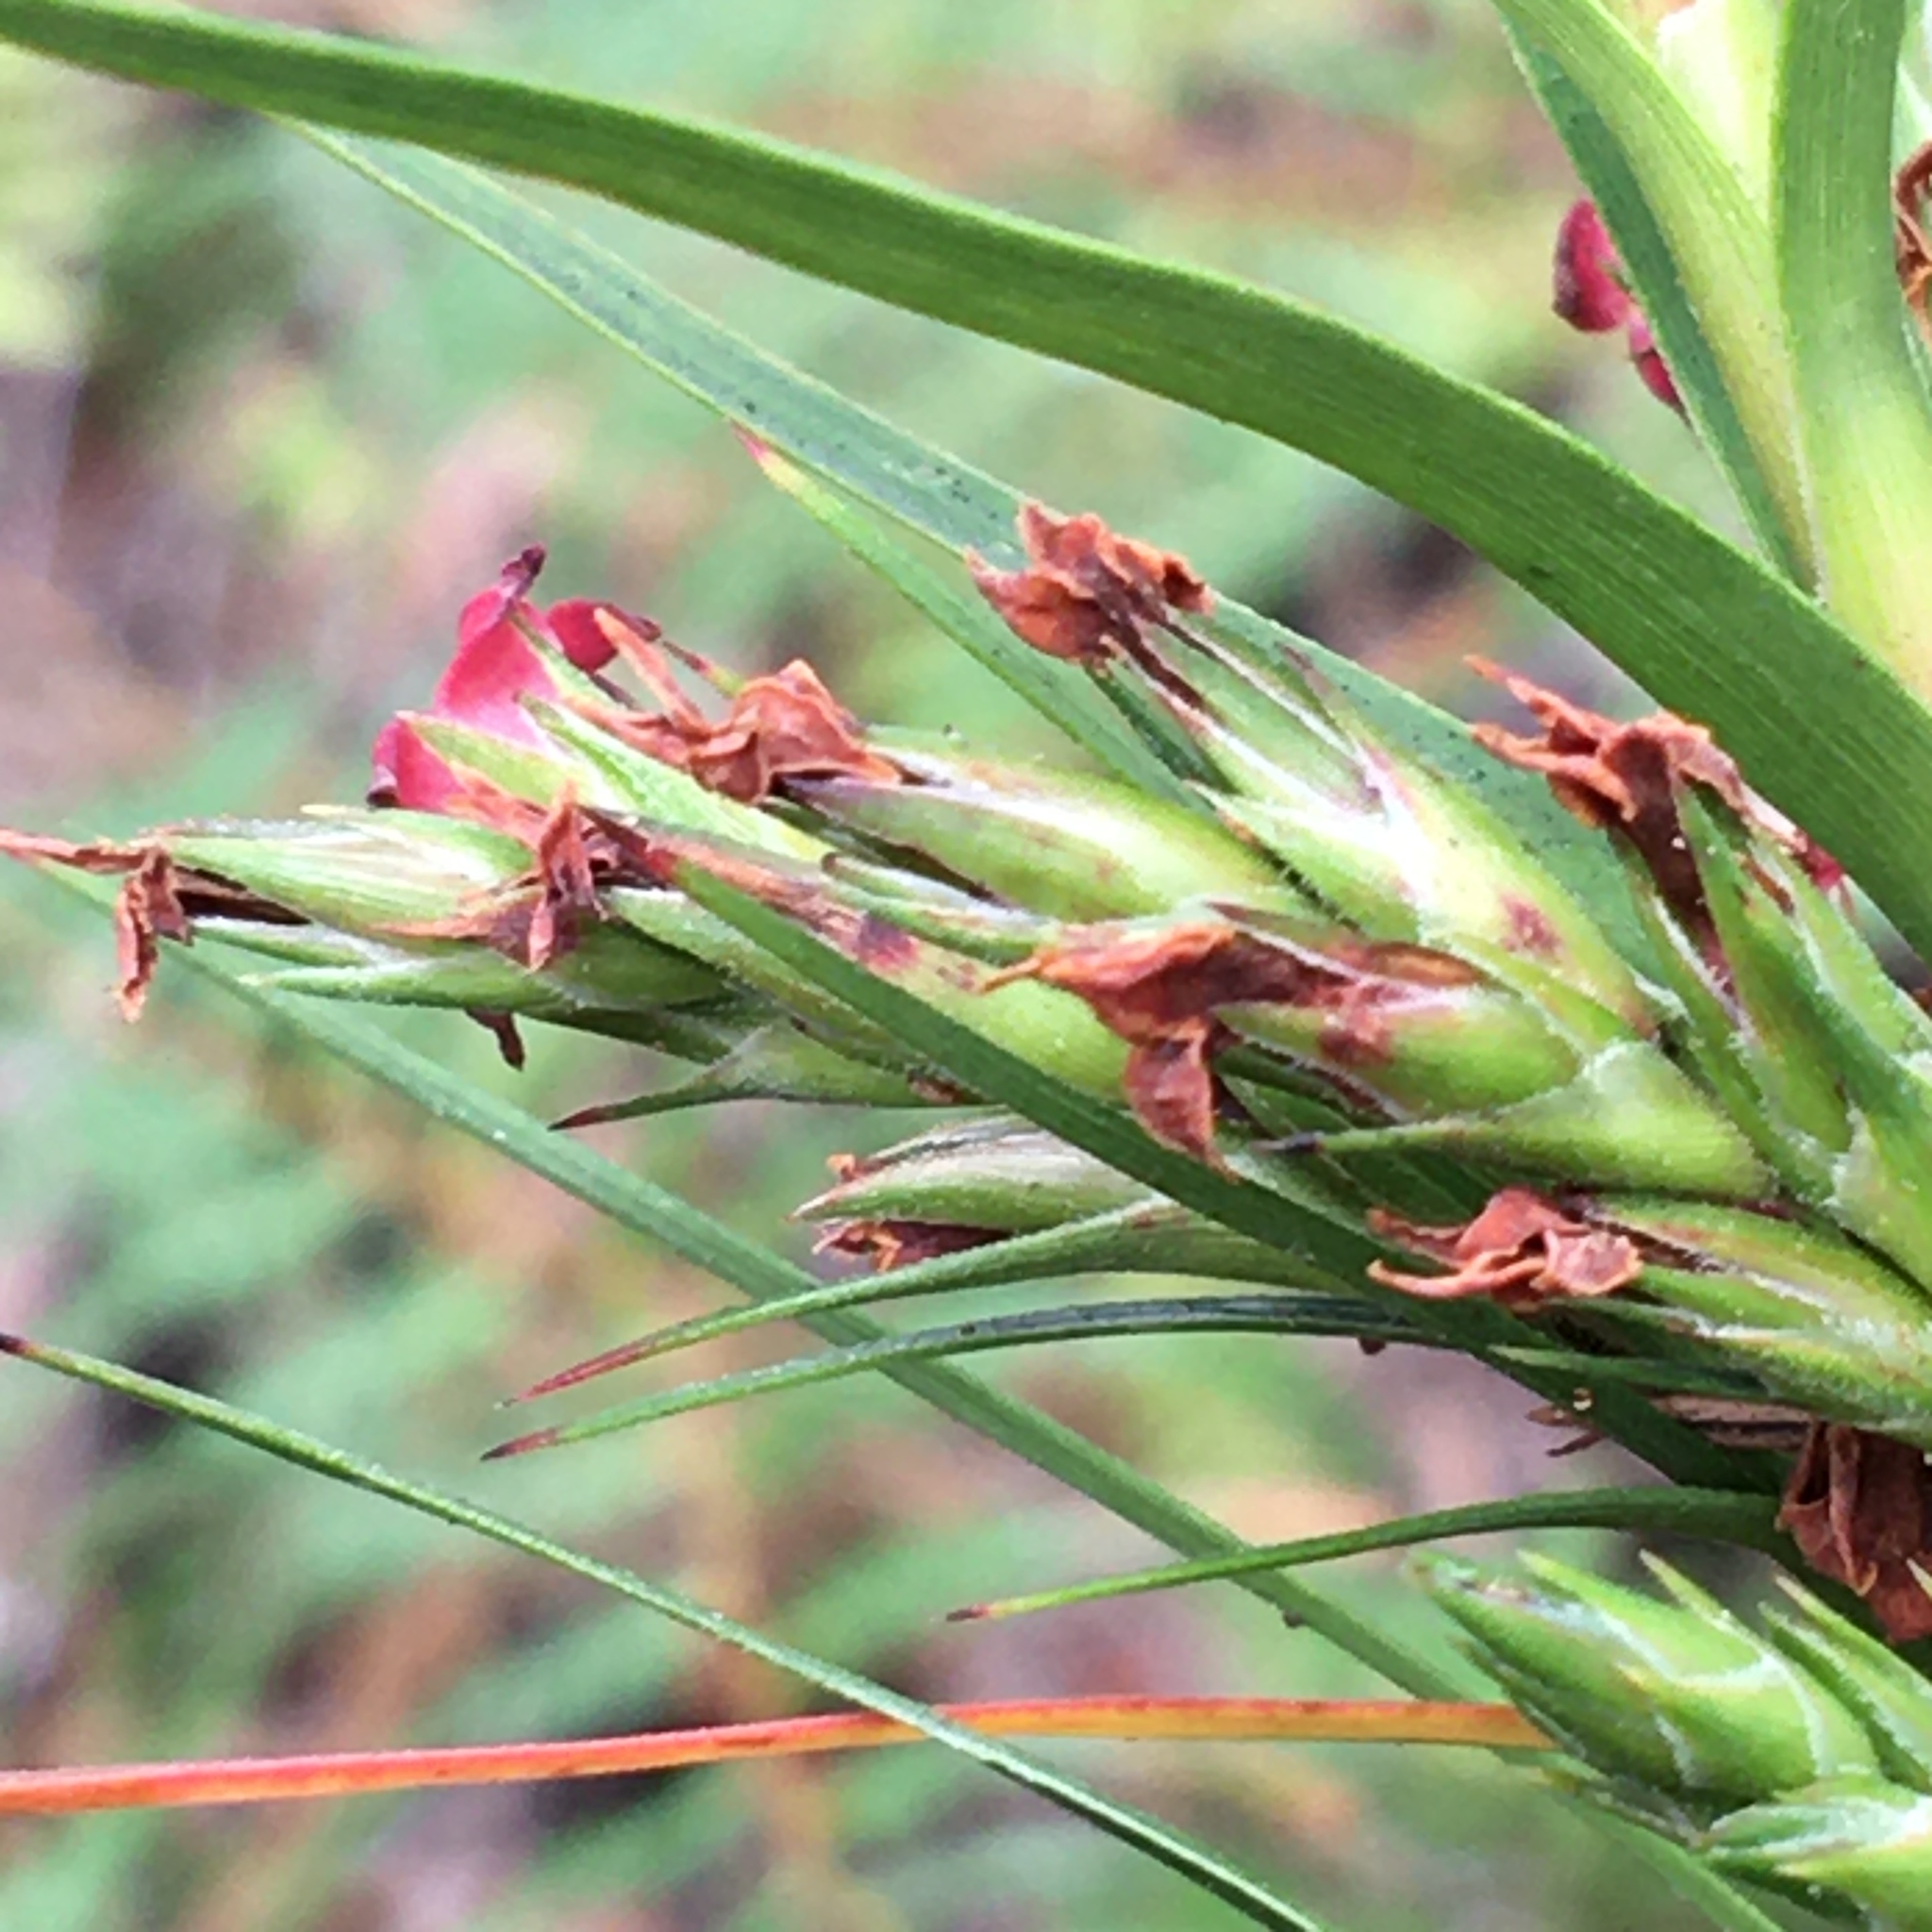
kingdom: Plantae
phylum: Tracheophyta
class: Magnoliopsida
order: Ericales
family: Ericaceae
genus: Dracophyllum
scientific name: Dracophyllum sinclairii
